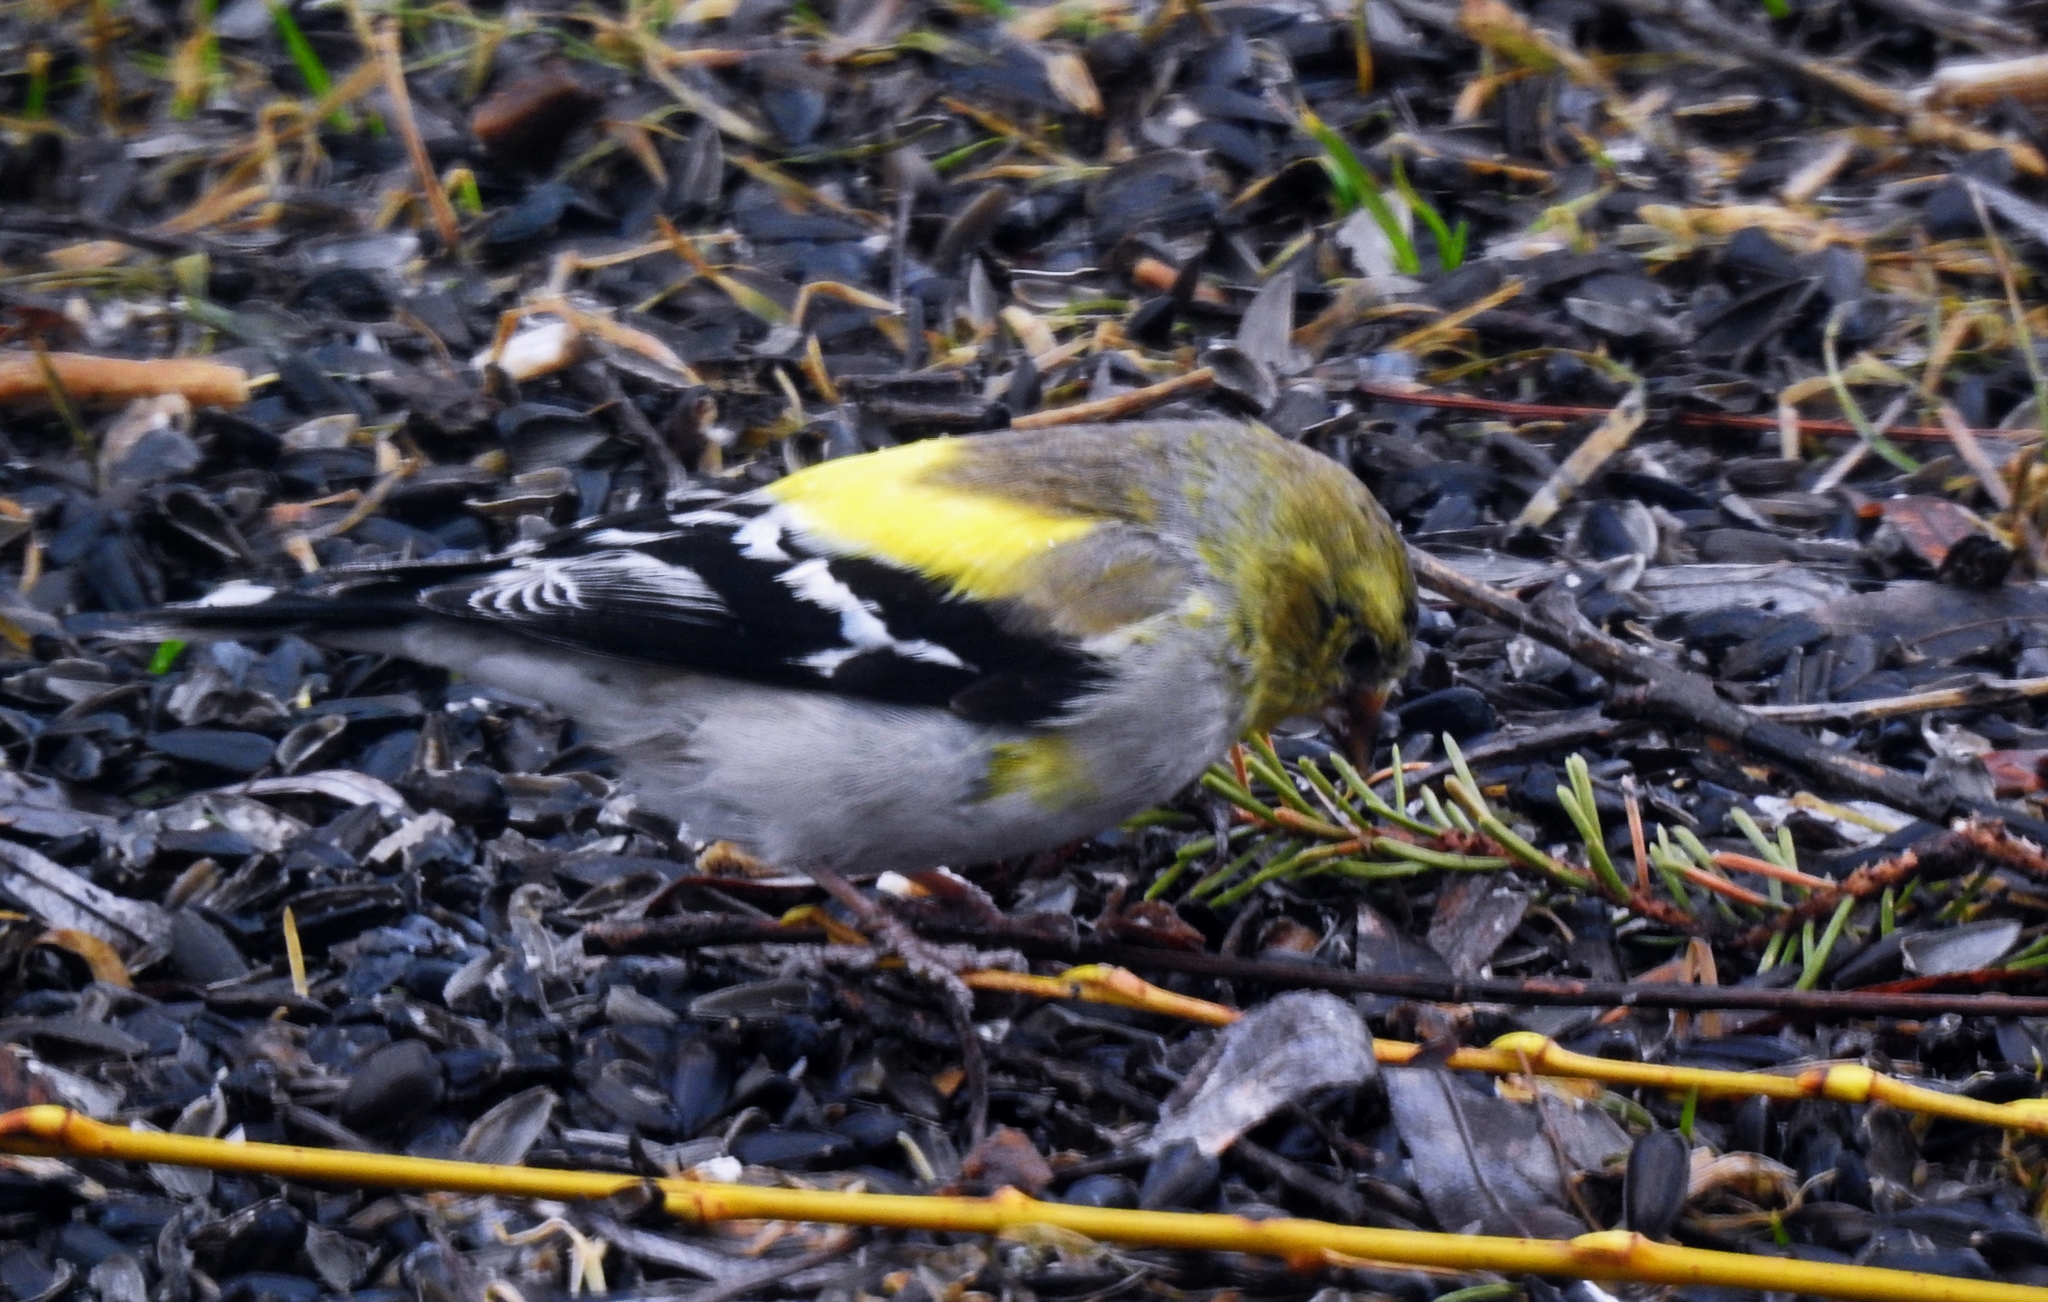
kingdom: Animalia
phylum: Chordata
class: Aves
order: Passeriformes
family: Fringillidae
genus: Spinus
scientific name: Spinus tristis
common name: American goldfinch
